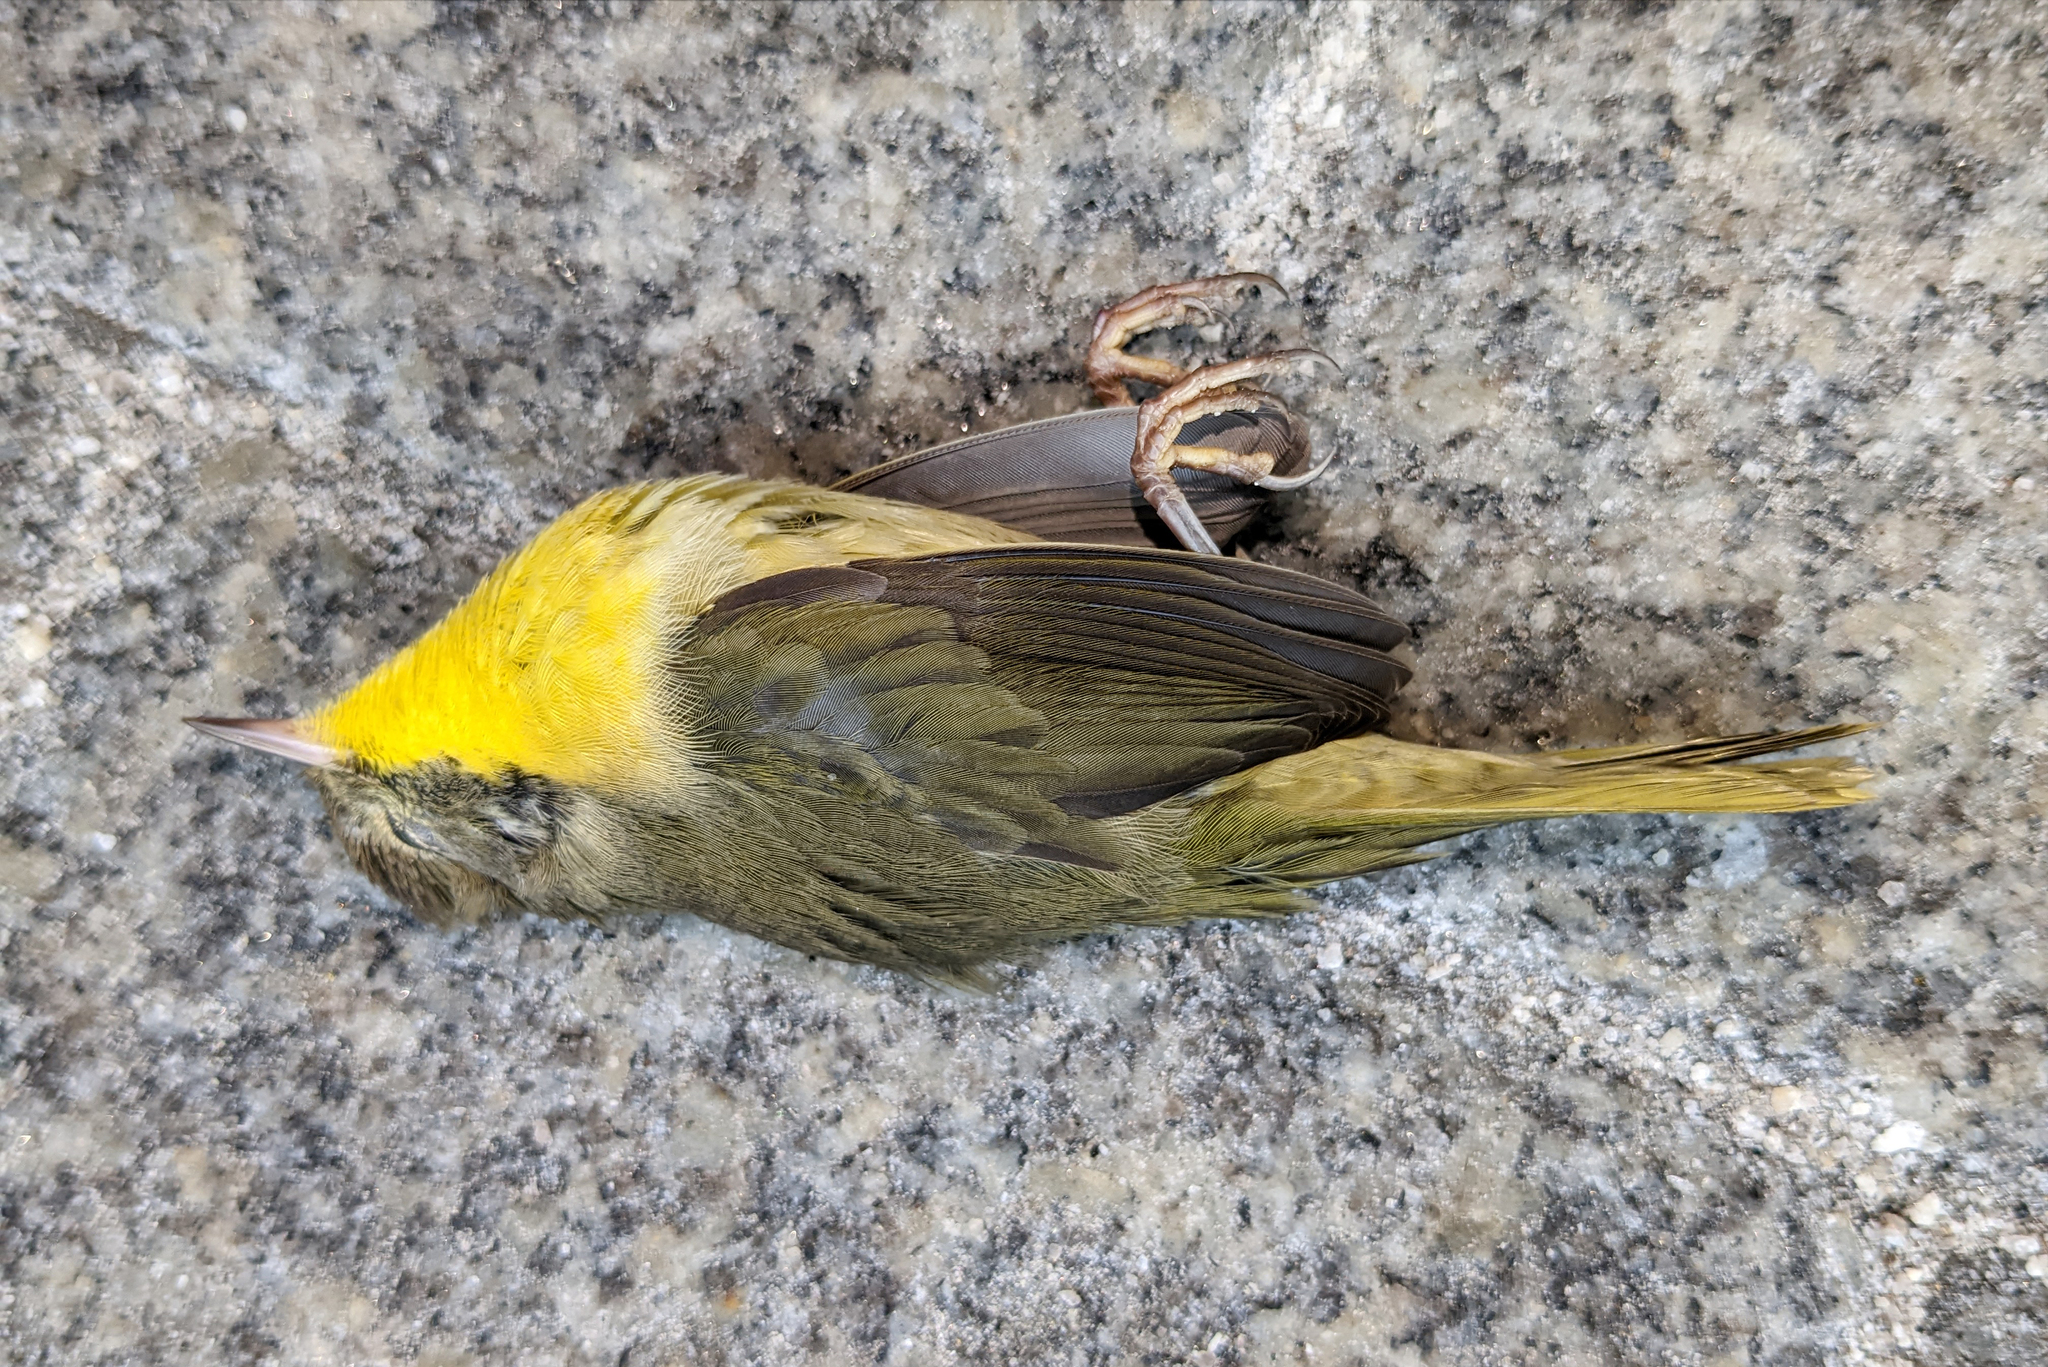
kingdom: Animalia
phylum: Chordata
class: Aves
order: Passeriformes
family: Parulidae
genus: Geothlypis
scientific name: Geothlypis trichas
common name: Common yellowthroat
